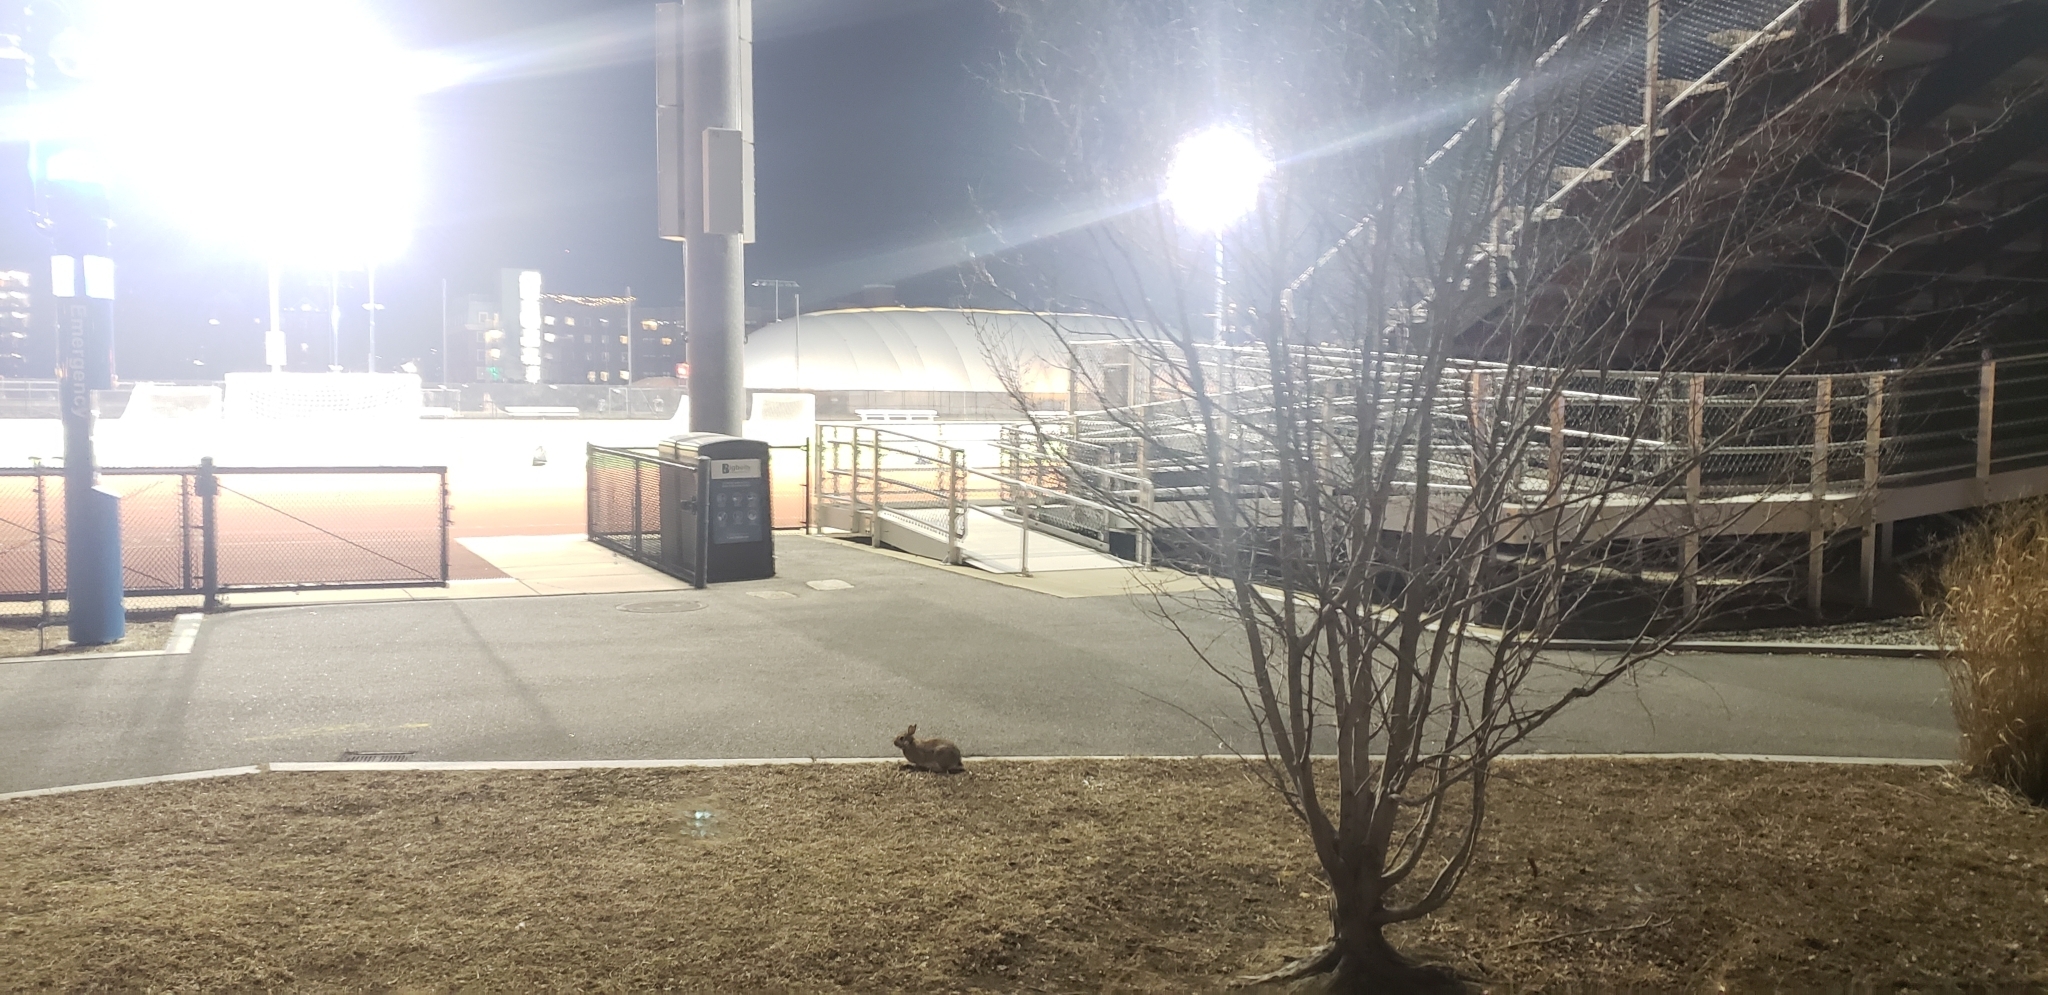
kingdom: Animalia
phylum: Chordata
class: Mammalia
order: Lagomorpha
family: Leporidae
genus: Sylvilagus
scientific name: Sylvilagus floridanus
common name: Eastern cottontail
